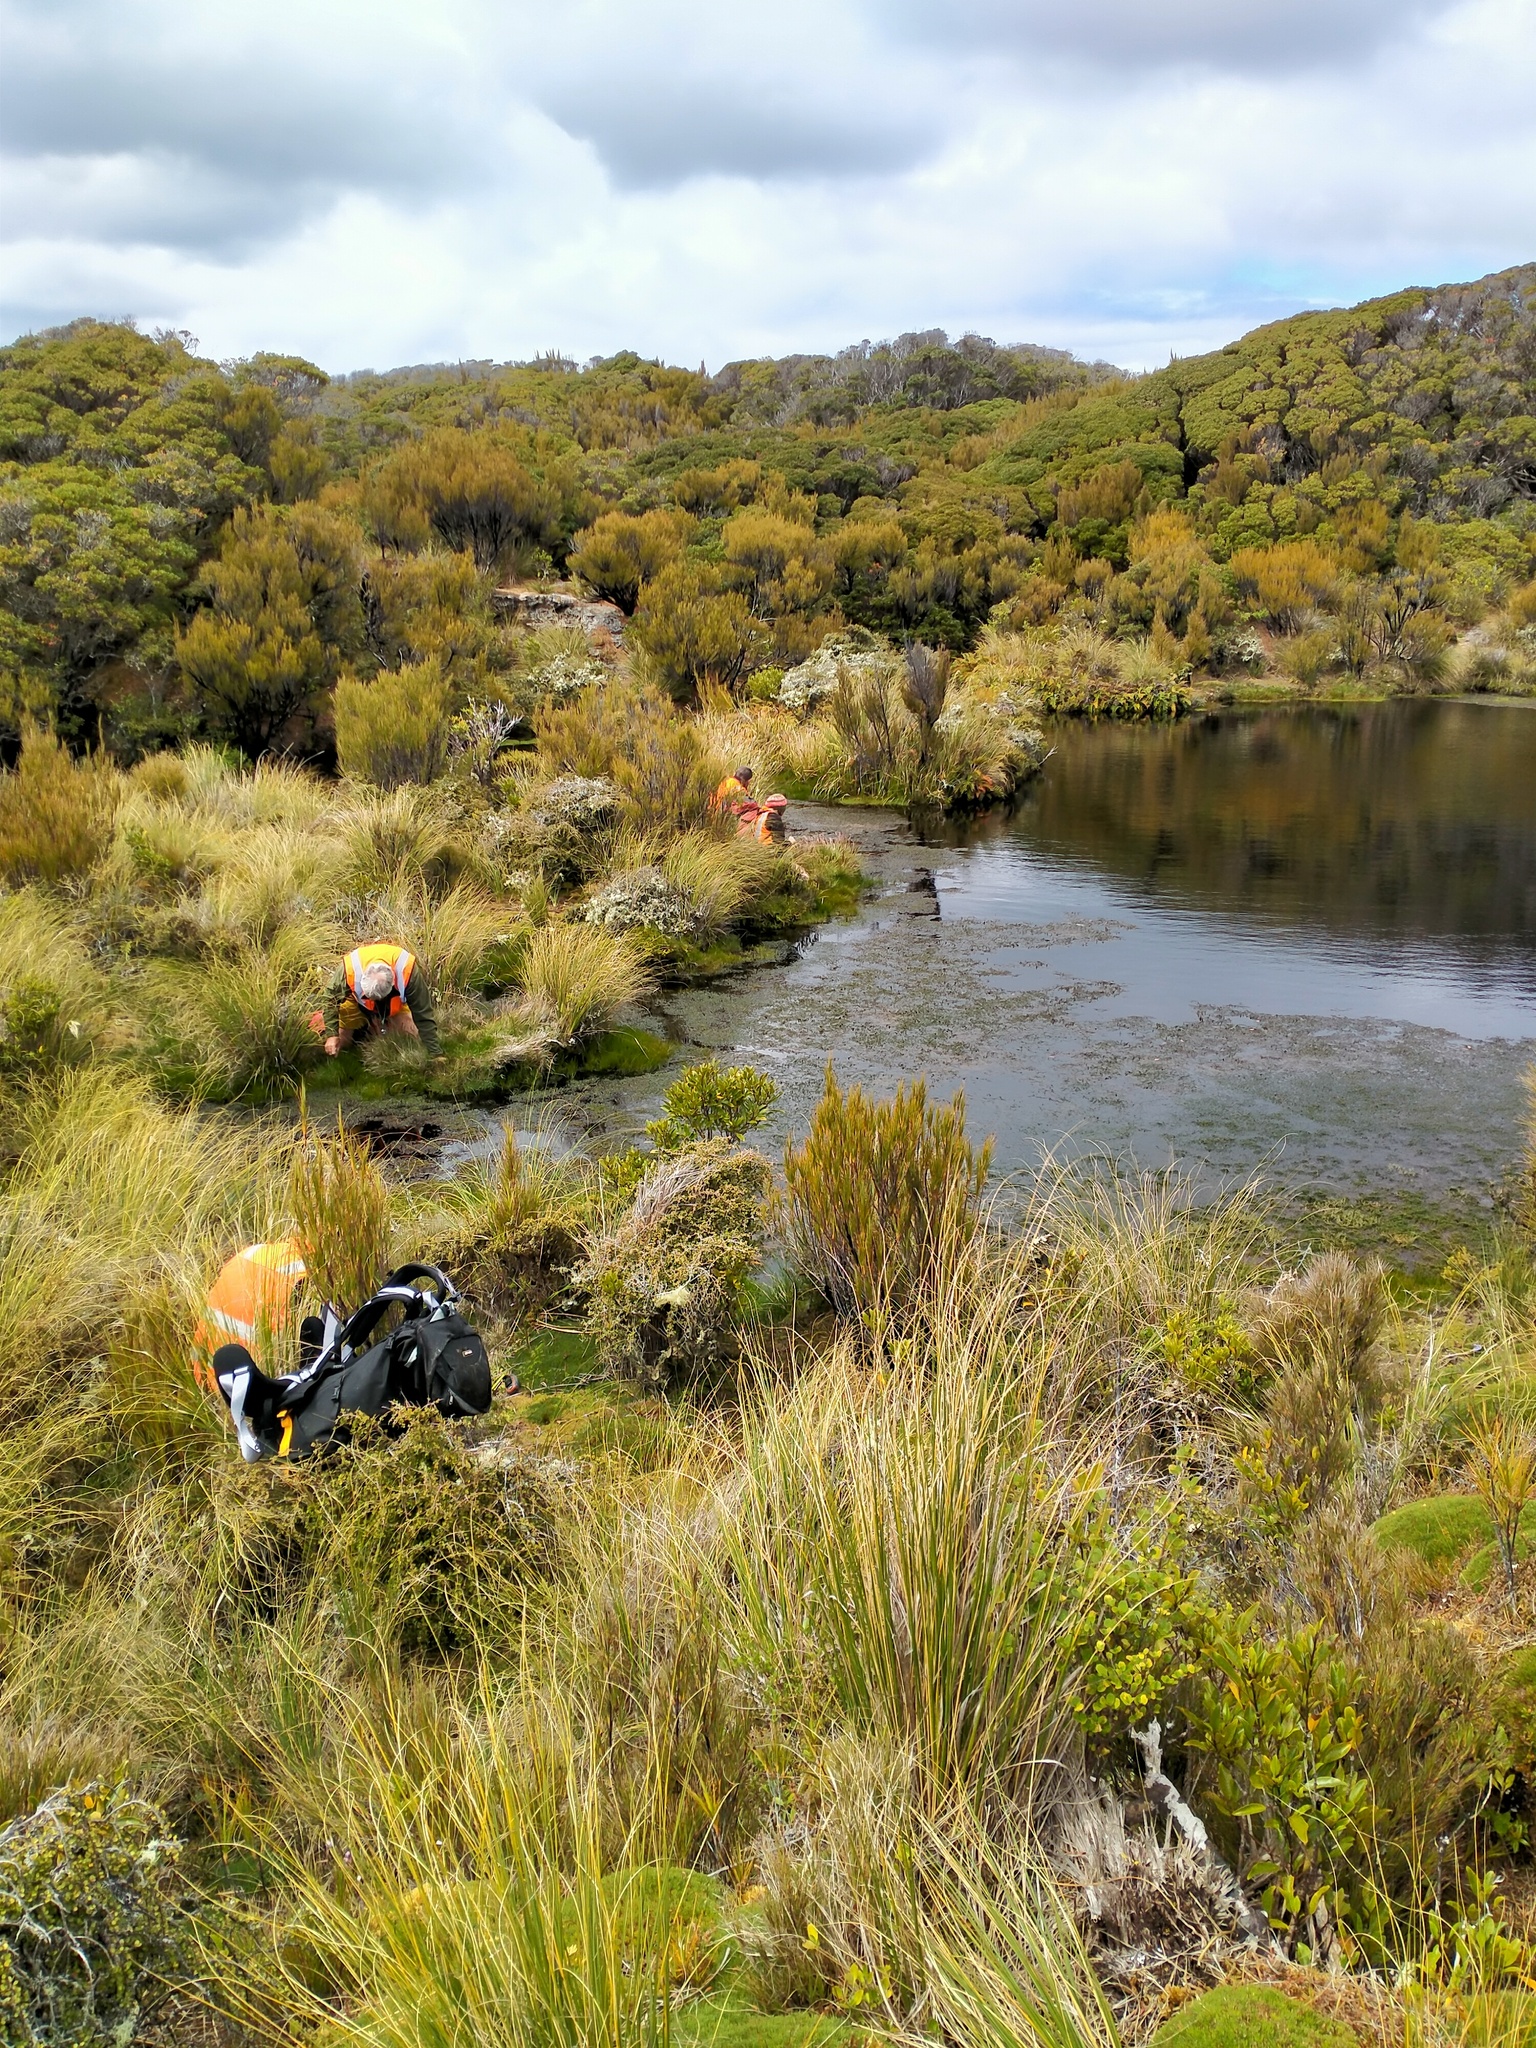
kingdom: Plantae
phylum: Tracheophyta
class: Magnoliopsida
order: Myrtales
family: Myrtaceae
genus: Metrosideros
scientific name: Metrosideros umbellata
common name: Southern rata
